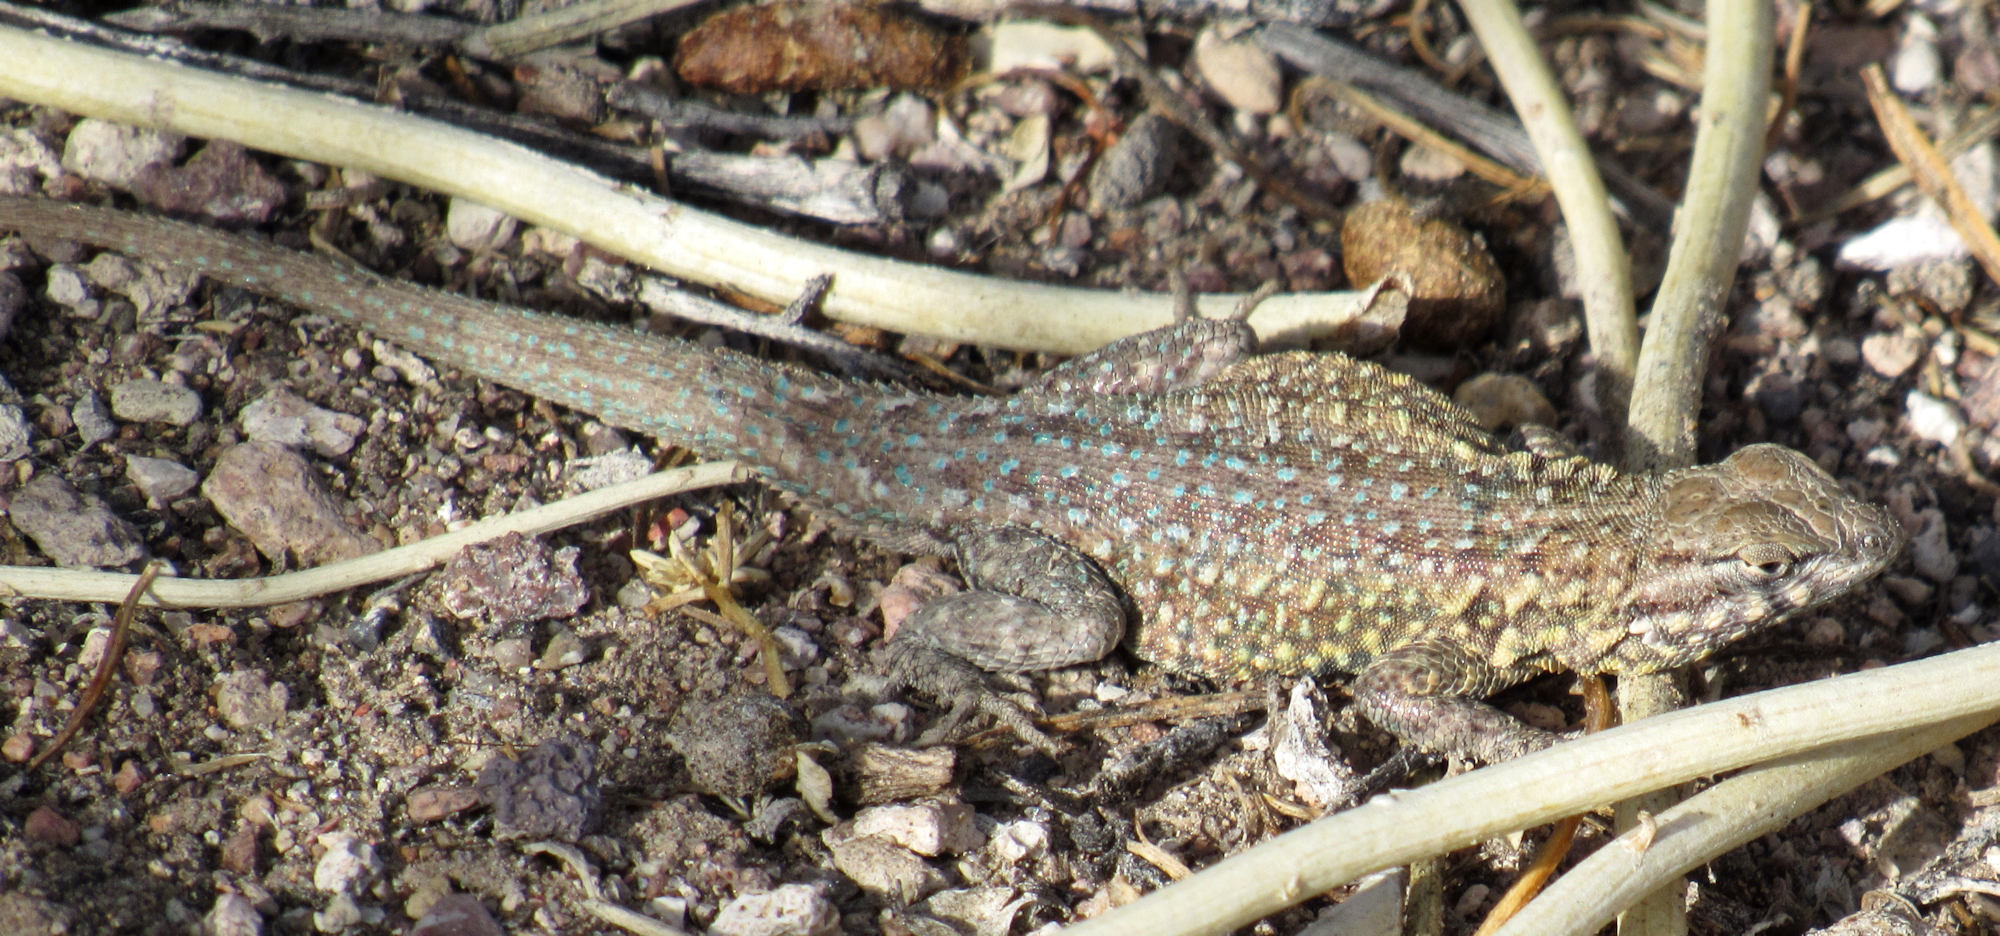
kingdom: Animalia
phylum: Chordata
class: Squamata
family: Phrynosomatidae
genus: Uta
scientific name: Uta stansburiana
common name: Side-blotched lizard
